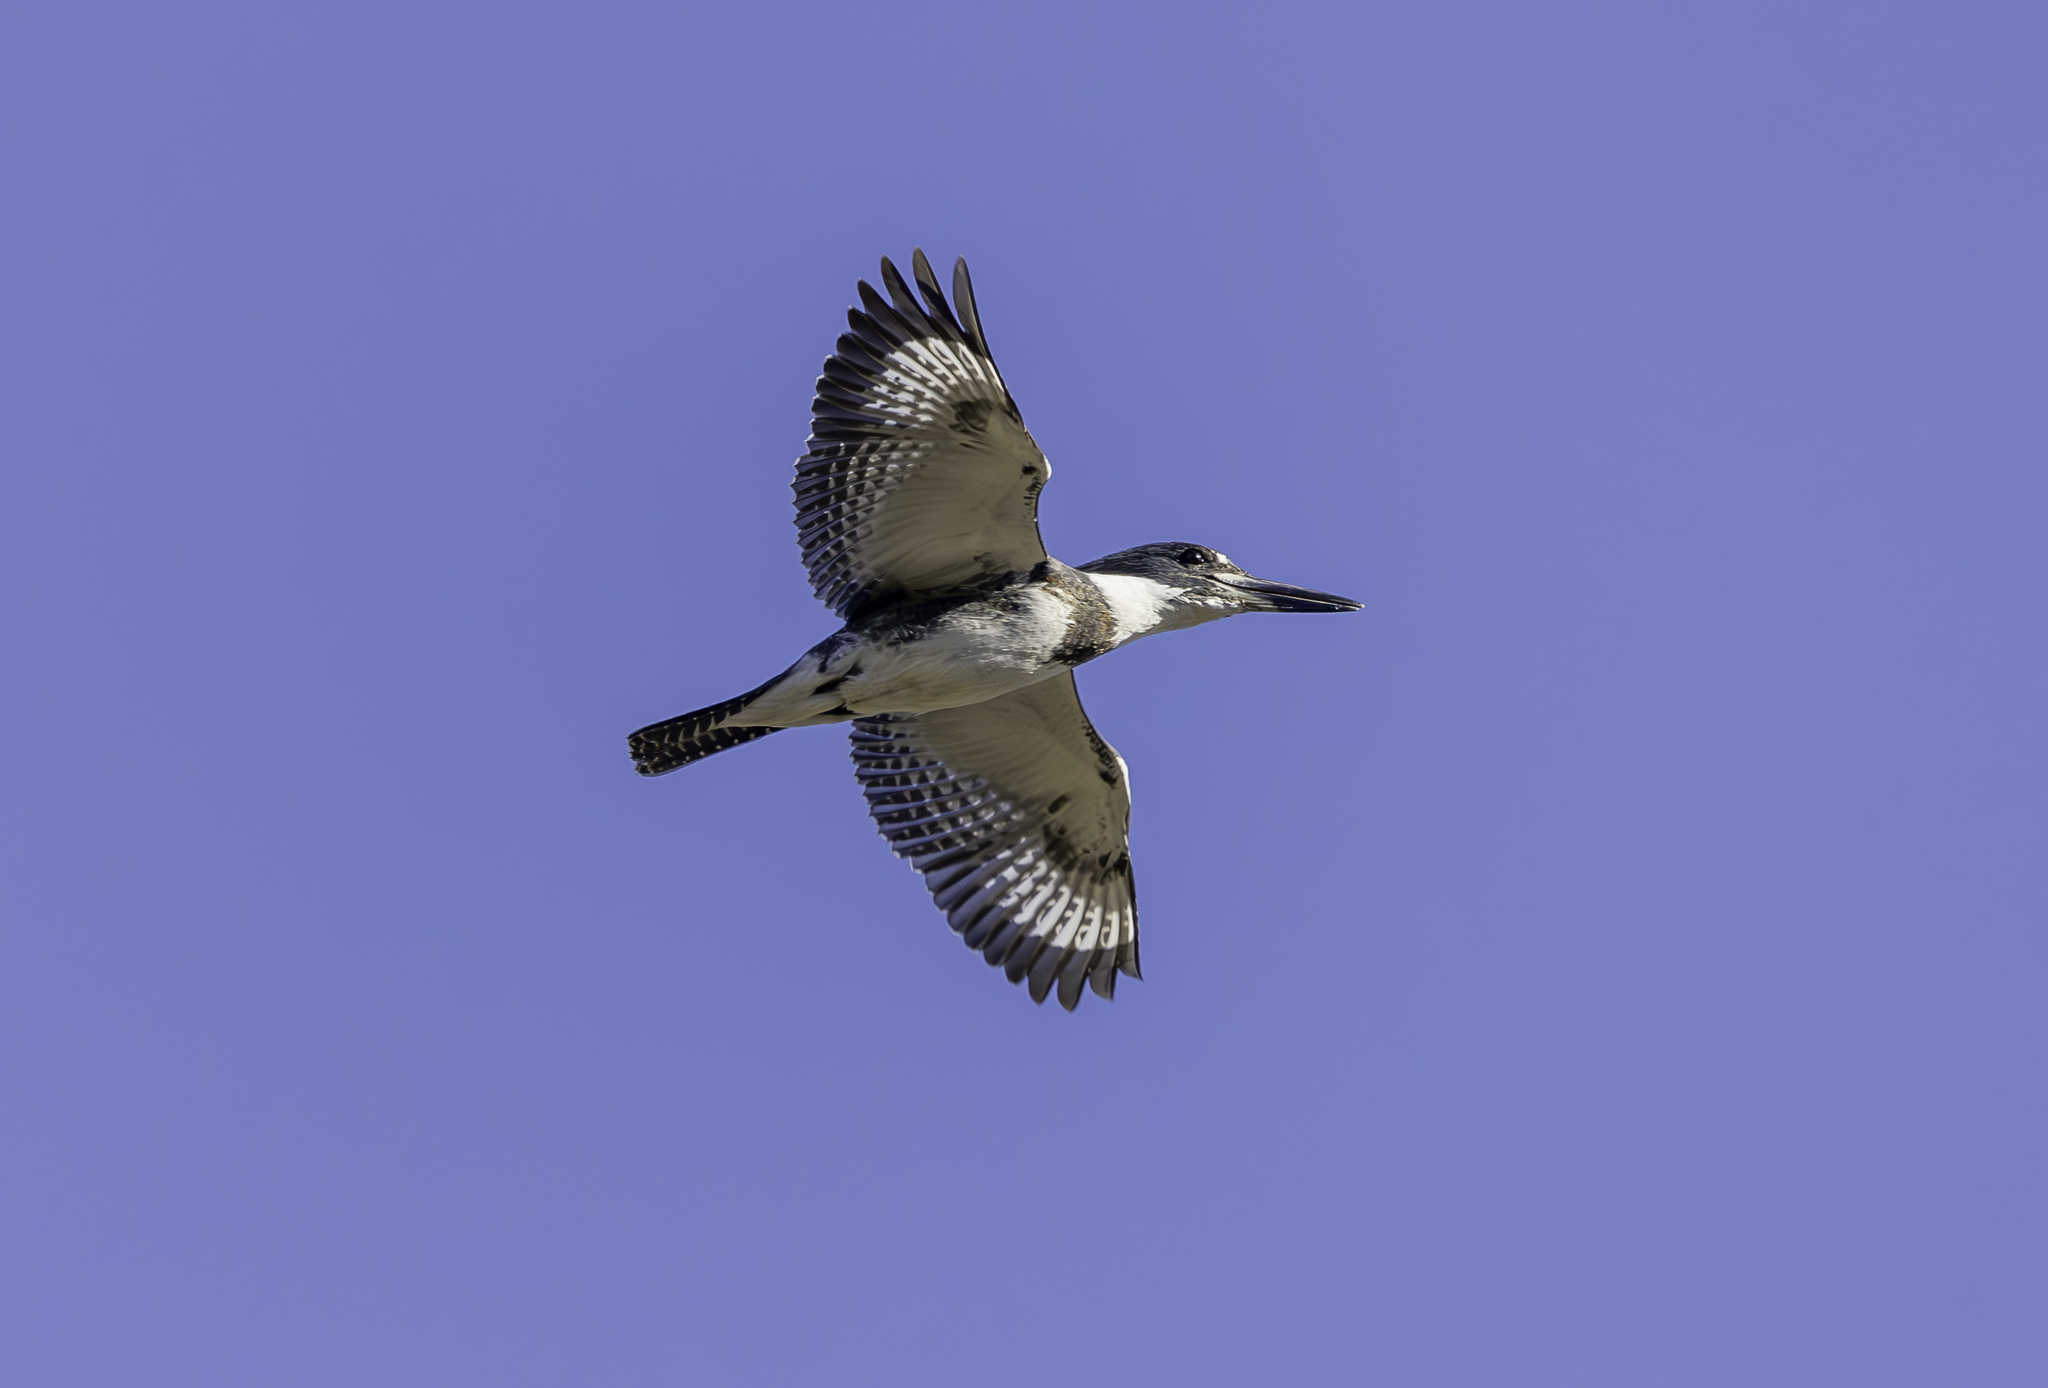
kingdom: Animalia
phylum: Chordata
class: Aves
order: Coraciiformes
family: Alcedinidae
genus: Megaceryle
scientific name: Megaceryle alcyon
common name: Belted kingfisher
